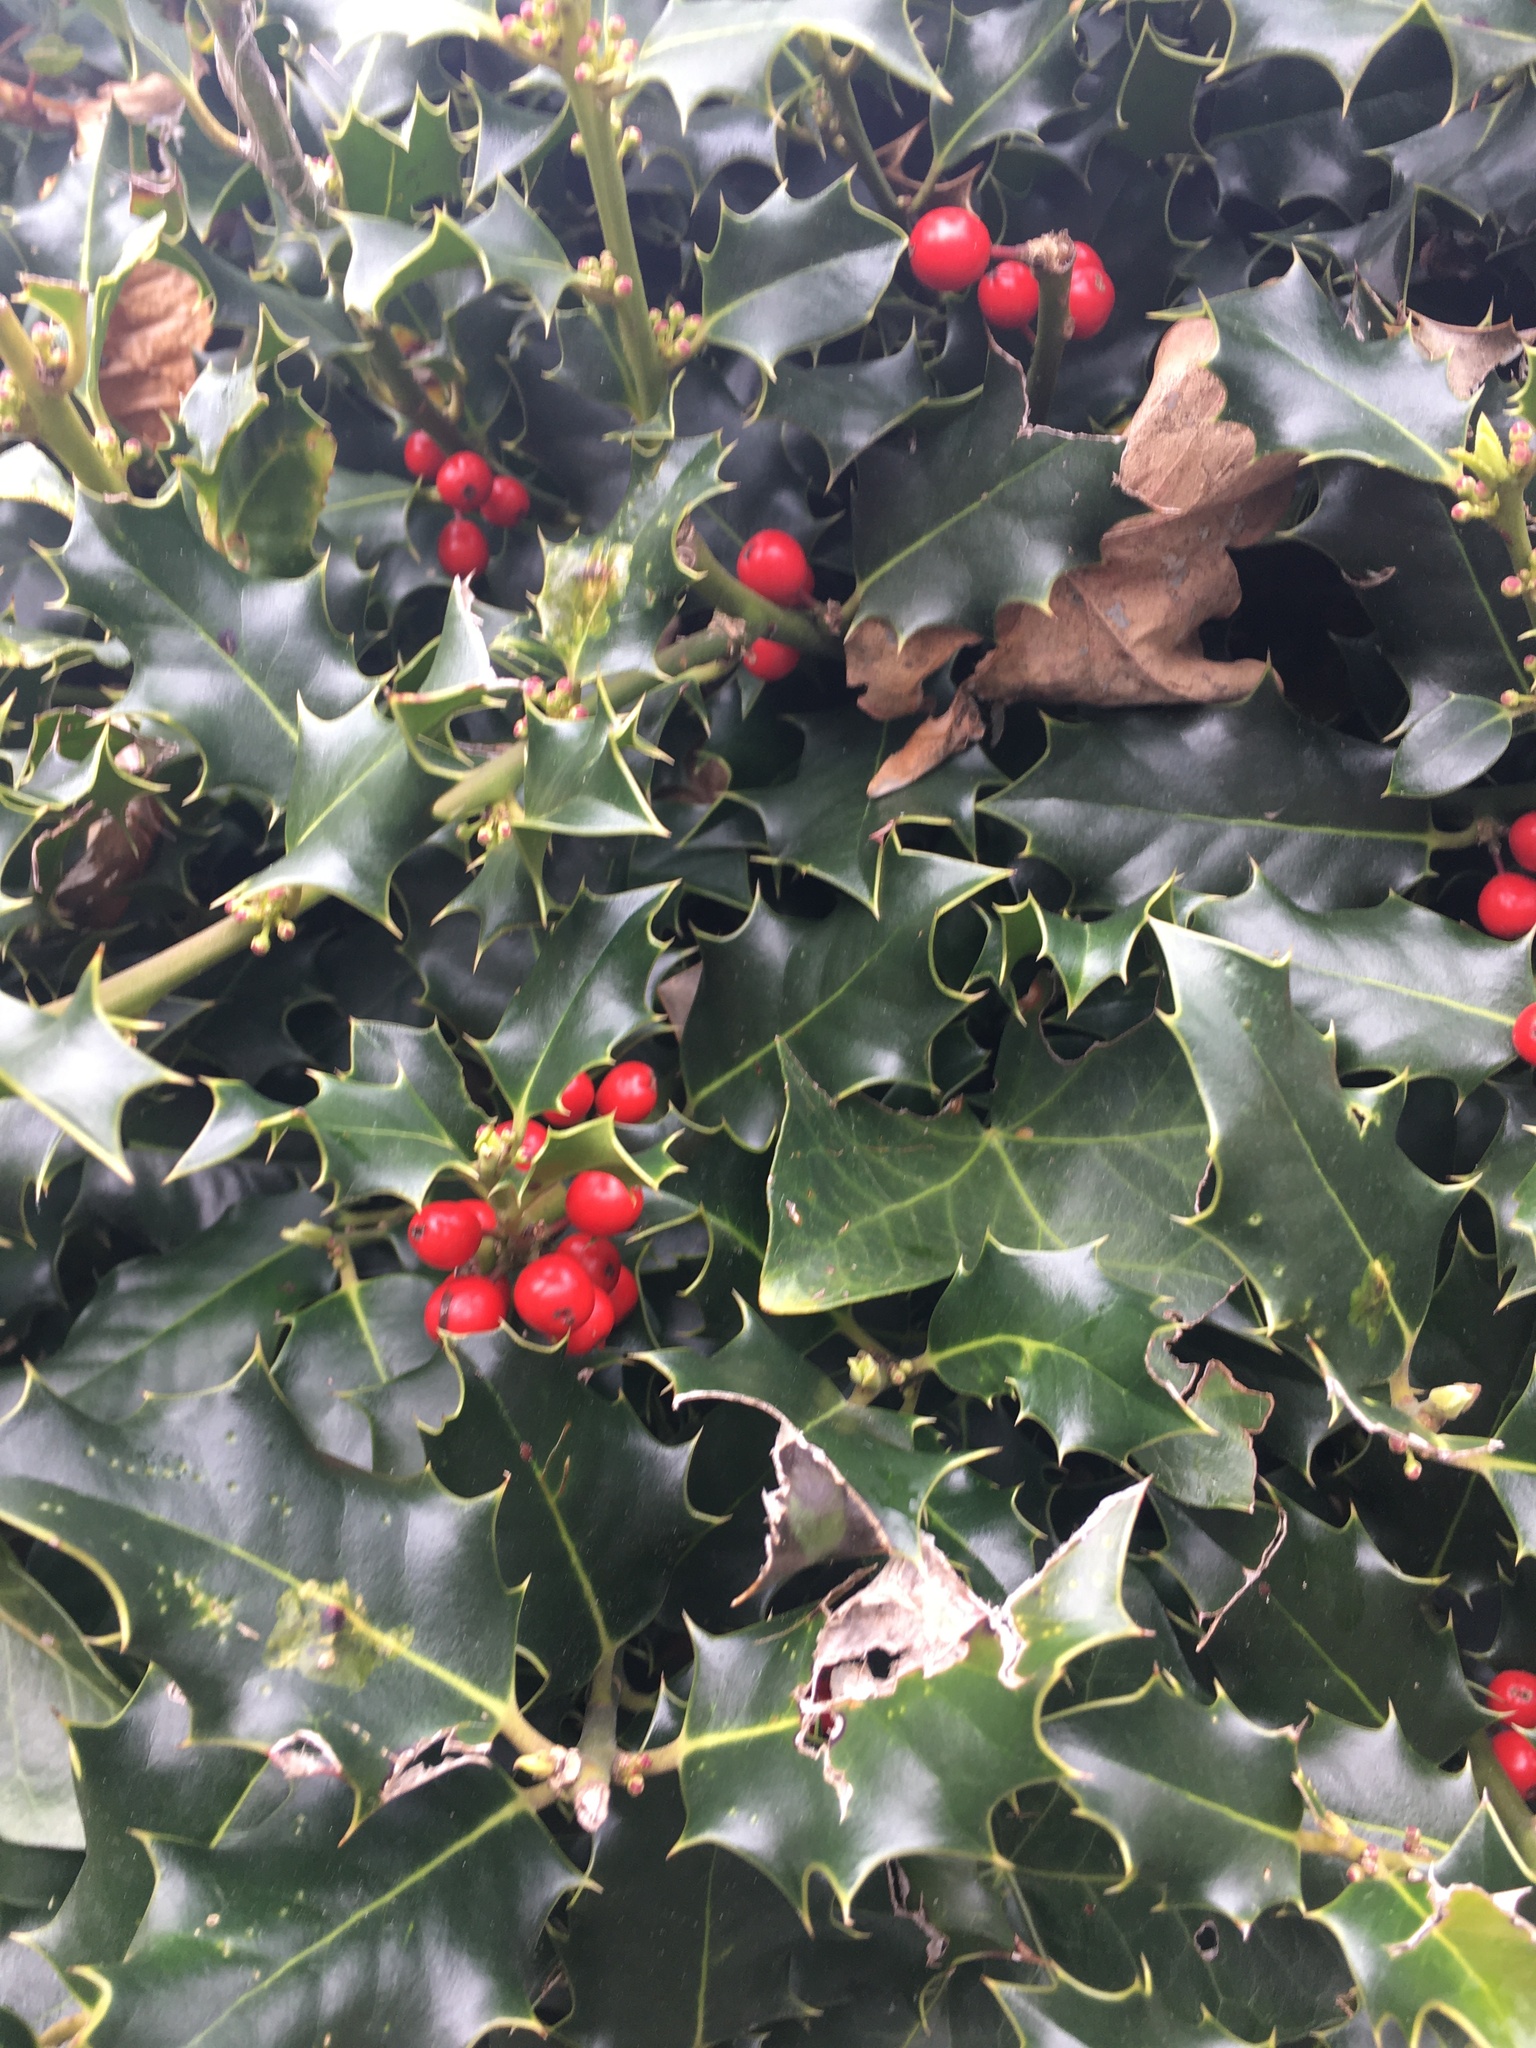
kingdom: Plantae
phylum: Tracheophyta
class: Magnoliopsida
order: Aquifoliales
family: Aquifoliaceae
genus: Ilex
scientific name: Ilex aquifolium
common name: English holly
